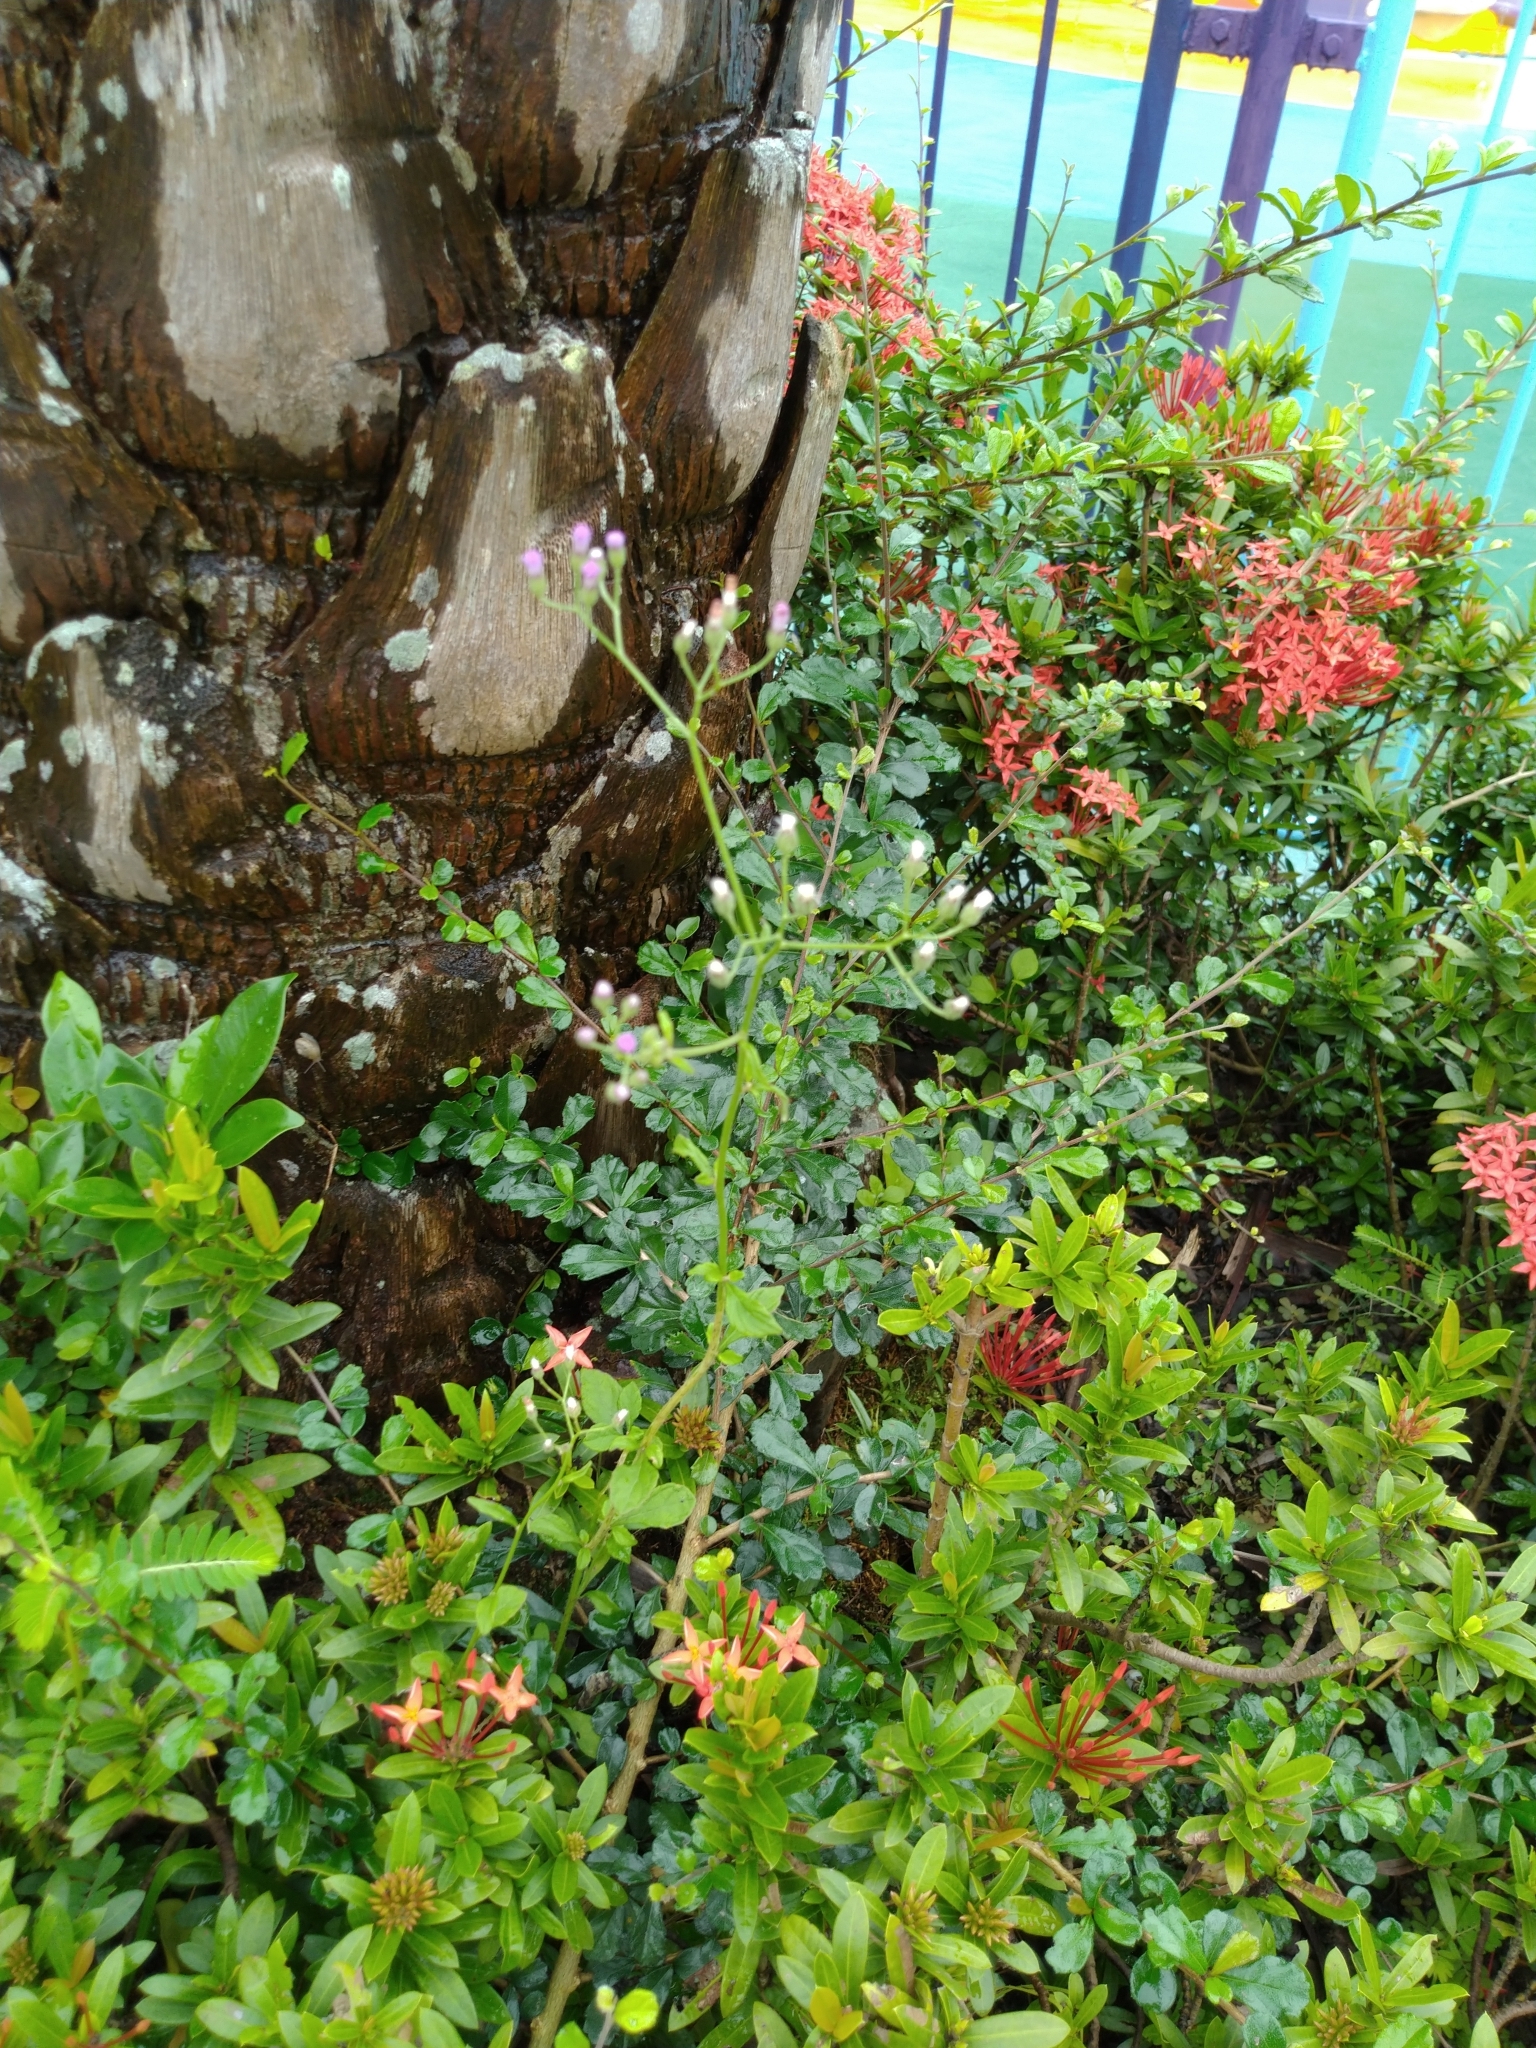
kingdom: Plantae
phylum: Tracheophyta
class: Magnoliopsida
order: Asterales
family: Asteraceae
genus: Cyanthillium
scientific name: Cyanthillium cinereum
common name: Little ironweed
